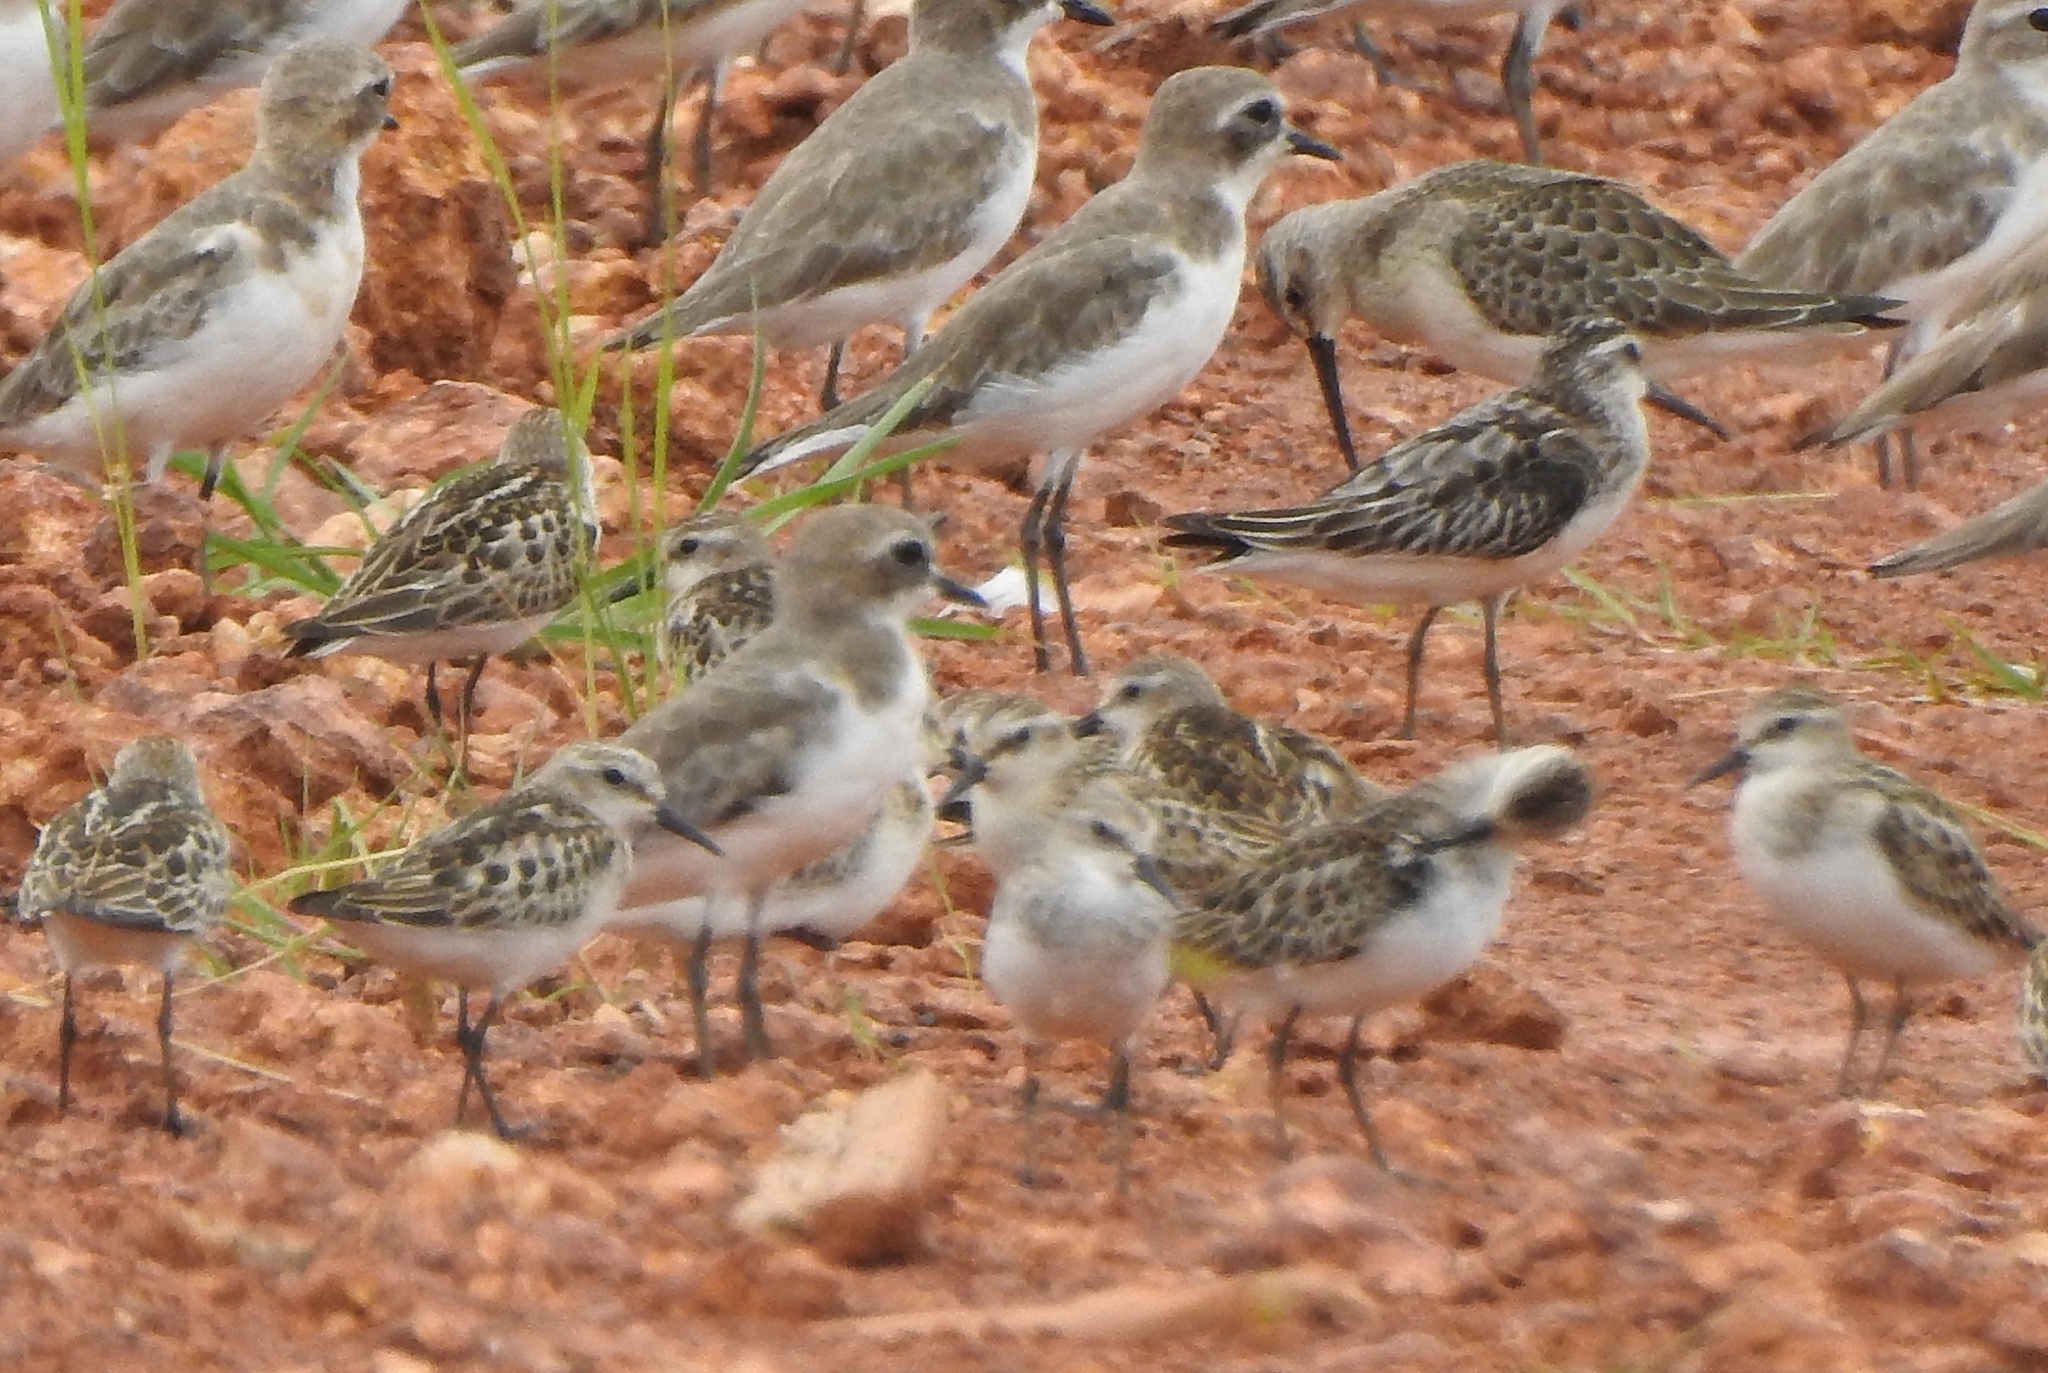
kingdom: Animalia
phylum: Chordata
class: Aves
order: Charadriiformes
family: Scolopacidae
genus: Calidris
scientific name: Calidris ferruginea
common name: Curlew sandpiper
